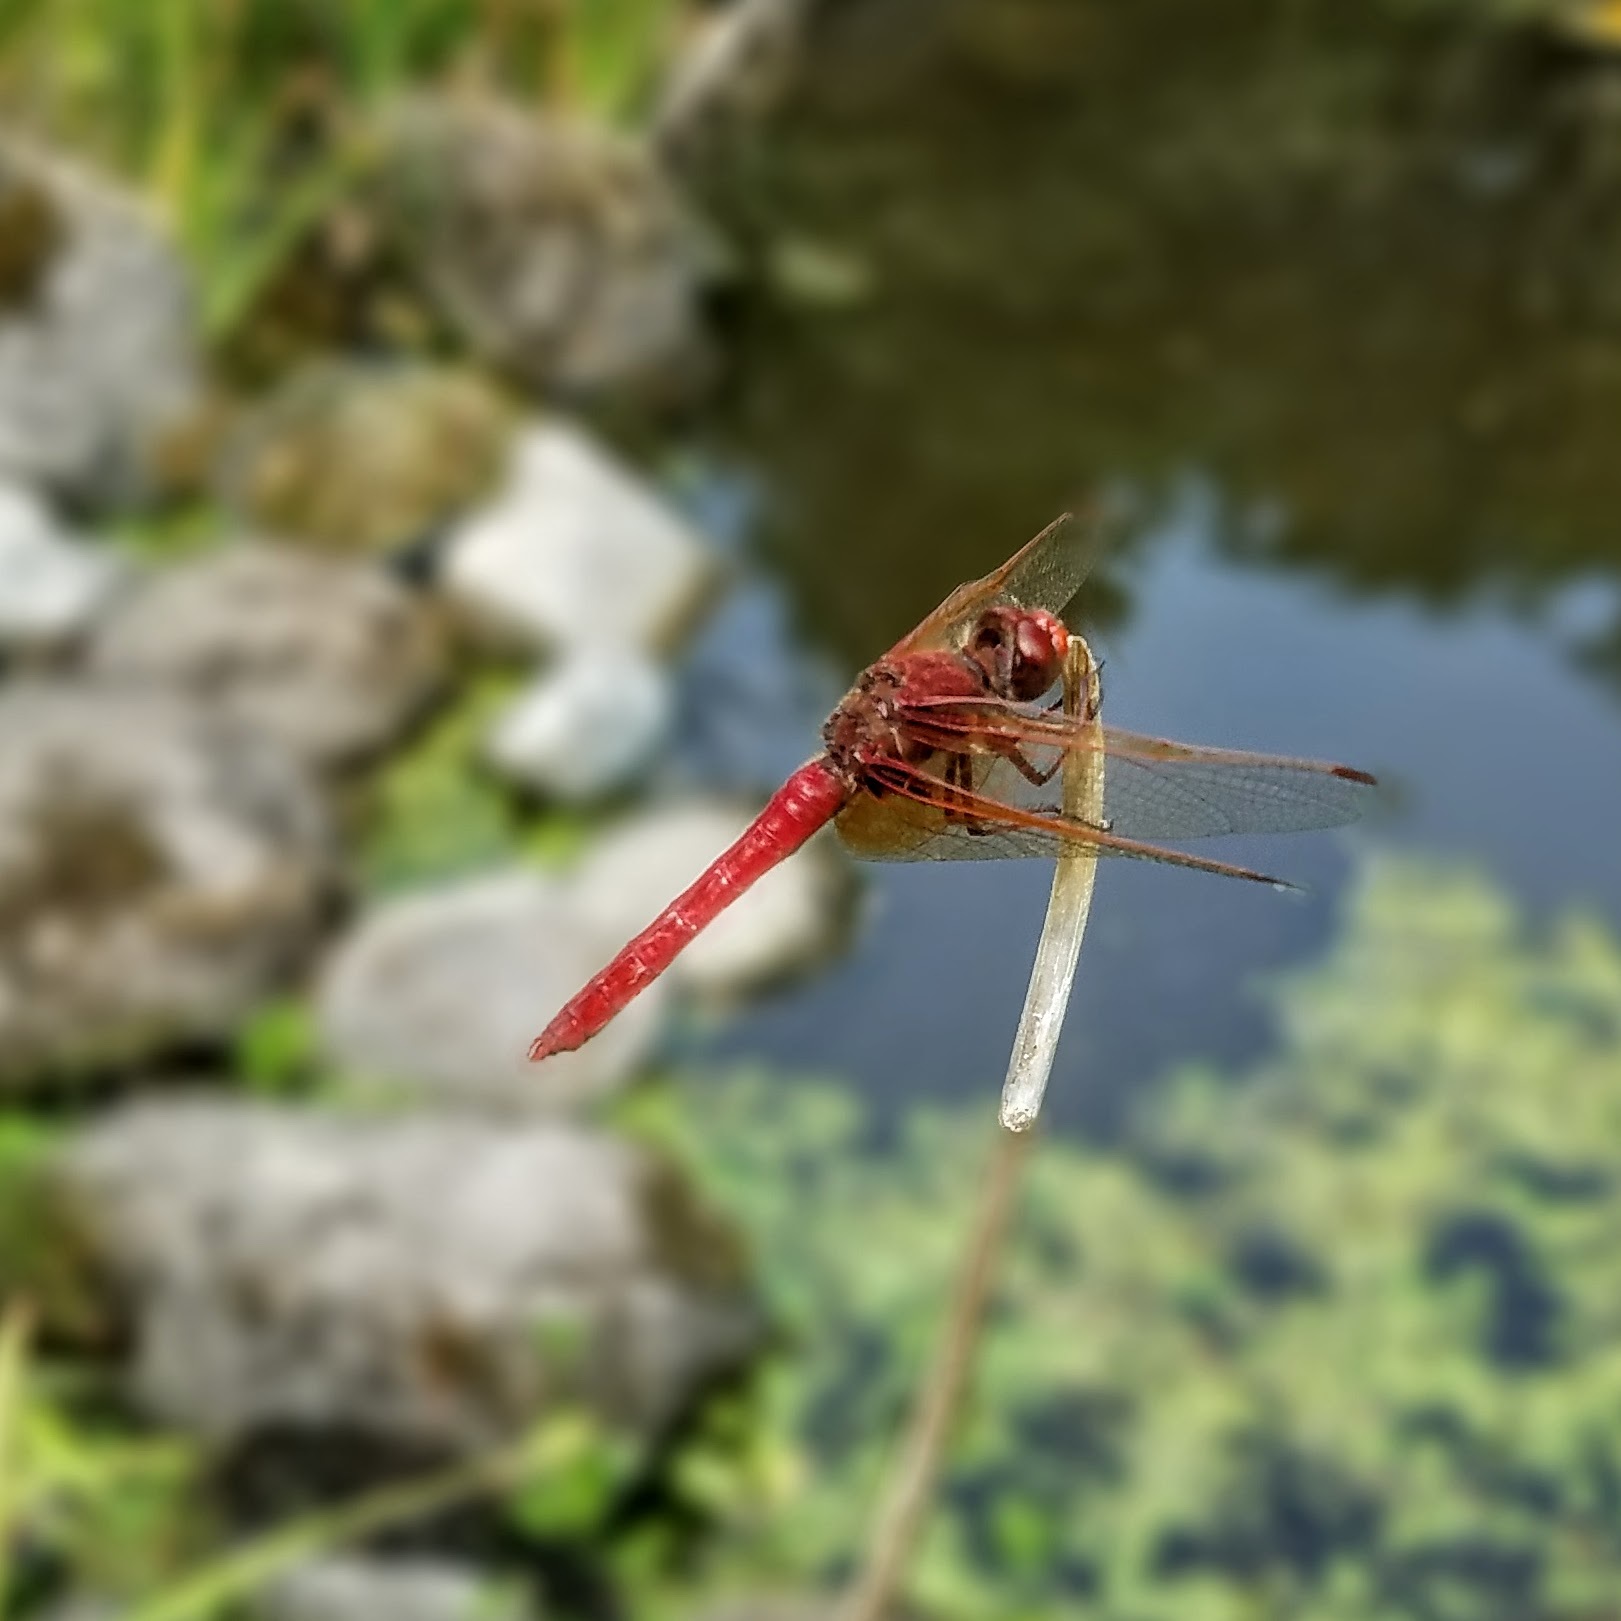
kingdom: Animalia
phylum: Arthropoda
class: Insecta
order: Odonata
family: Libellulidae
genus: Sympetrum
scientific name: Sympetrum illotum
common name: Cardinal meadowhawk
